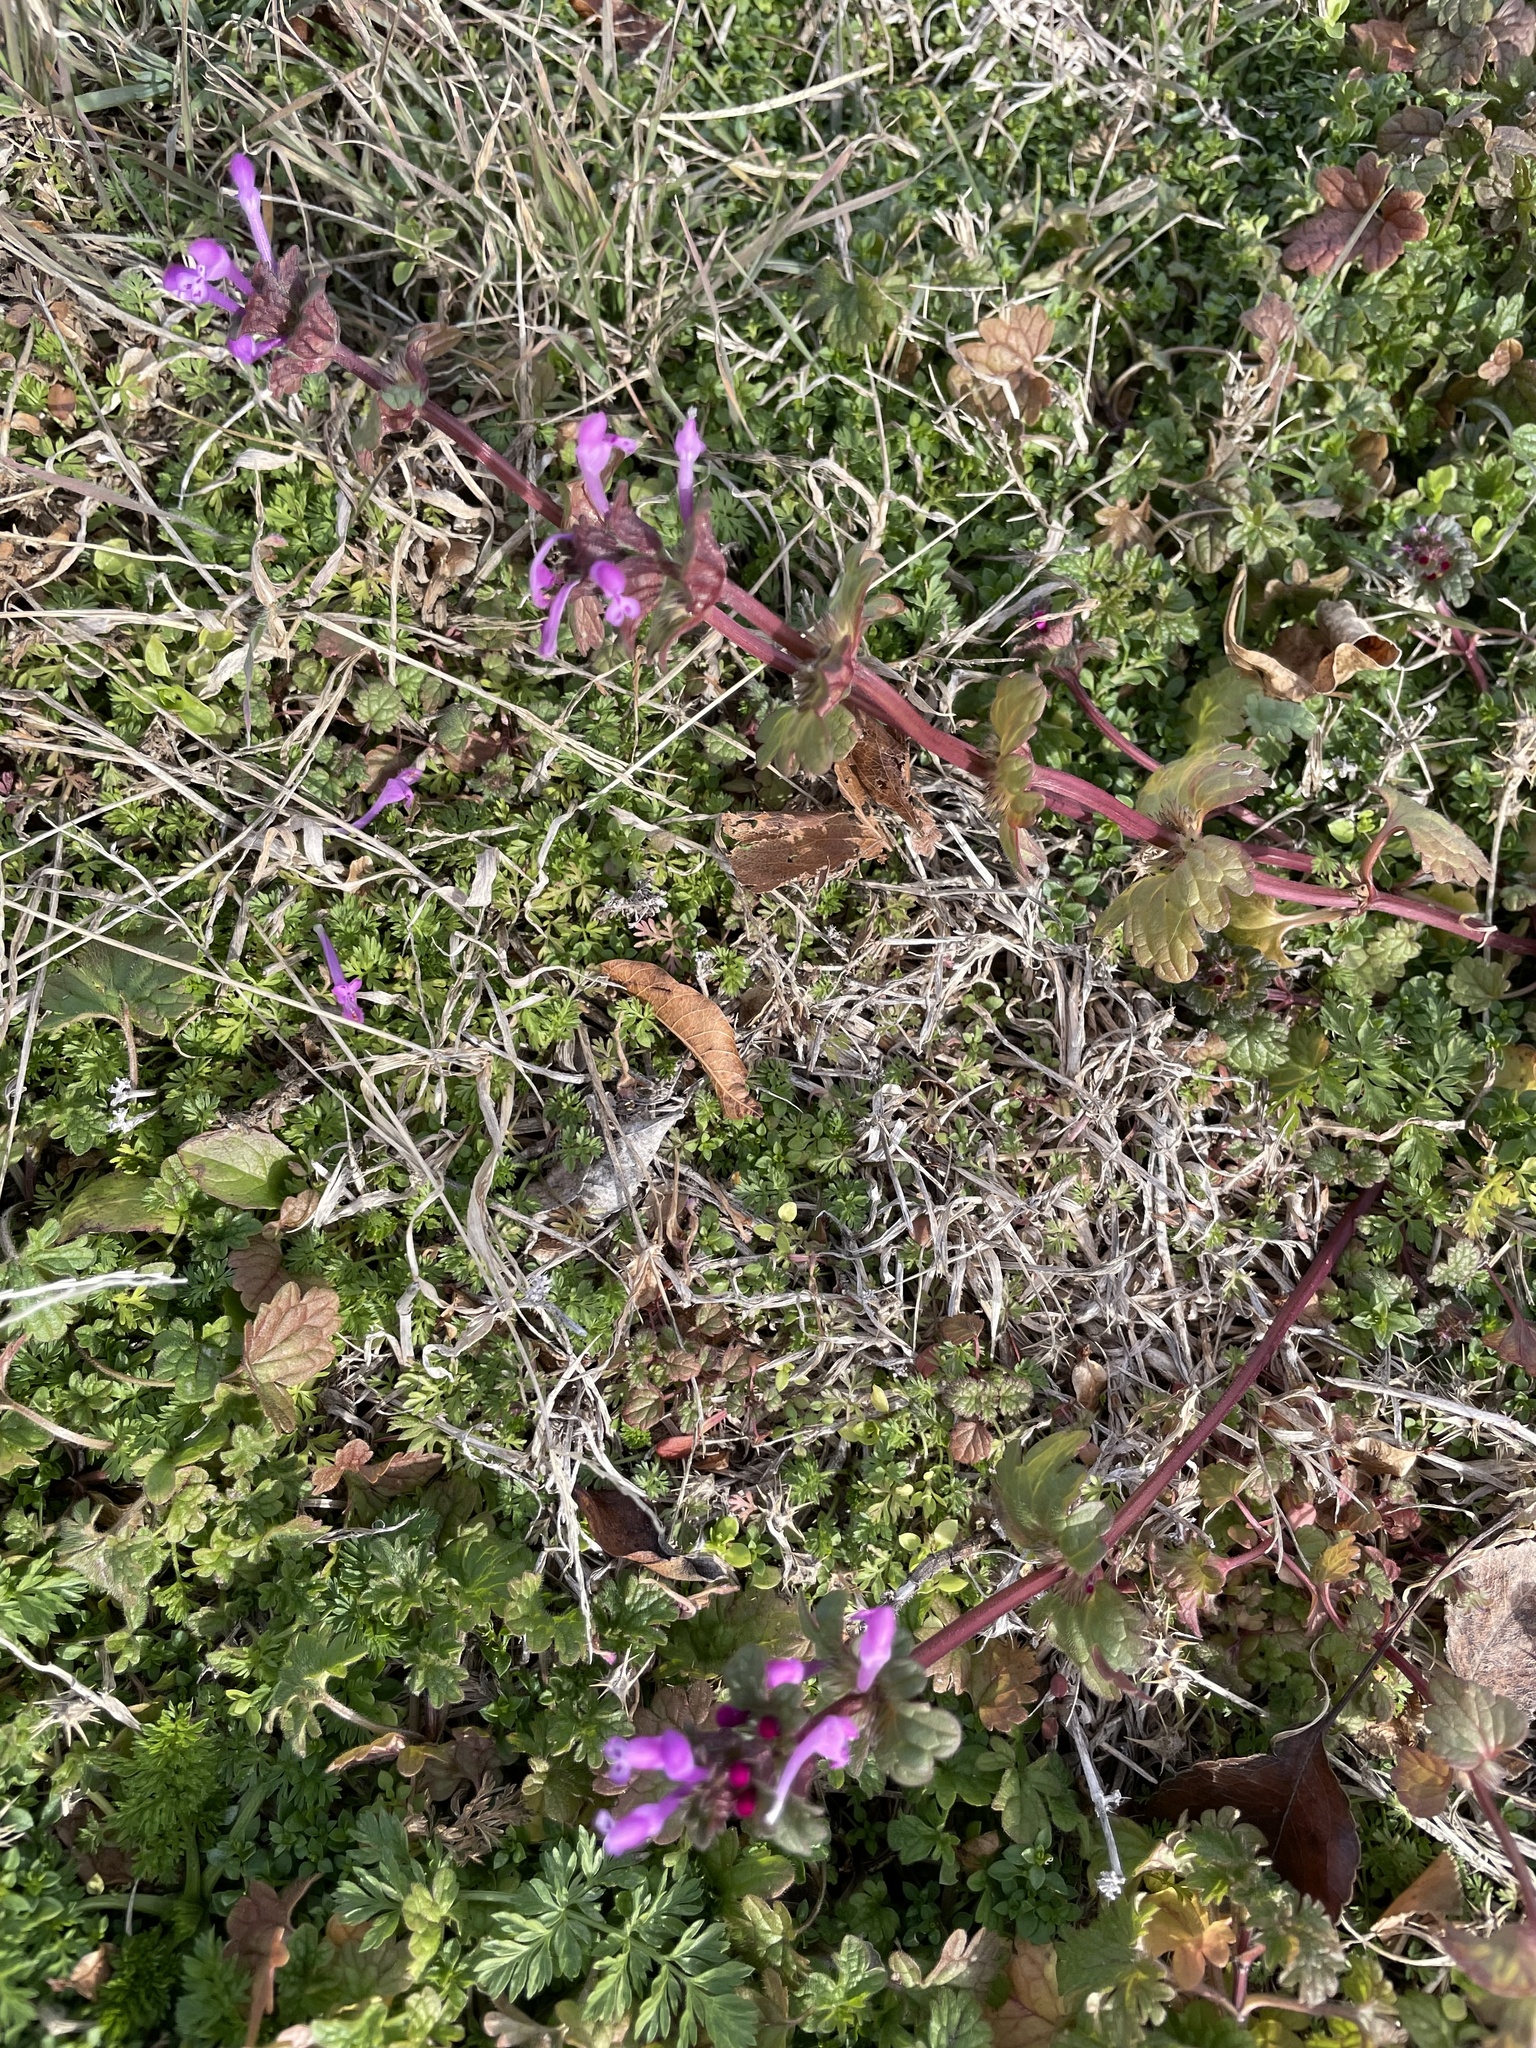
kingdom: Plantae
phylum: Tracheophyta
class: Magnoliopsida
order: Lamiales
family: Lamiaceae
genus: Lamium
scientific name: Lamium amplexicaule
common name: Henbit dead-nettle
